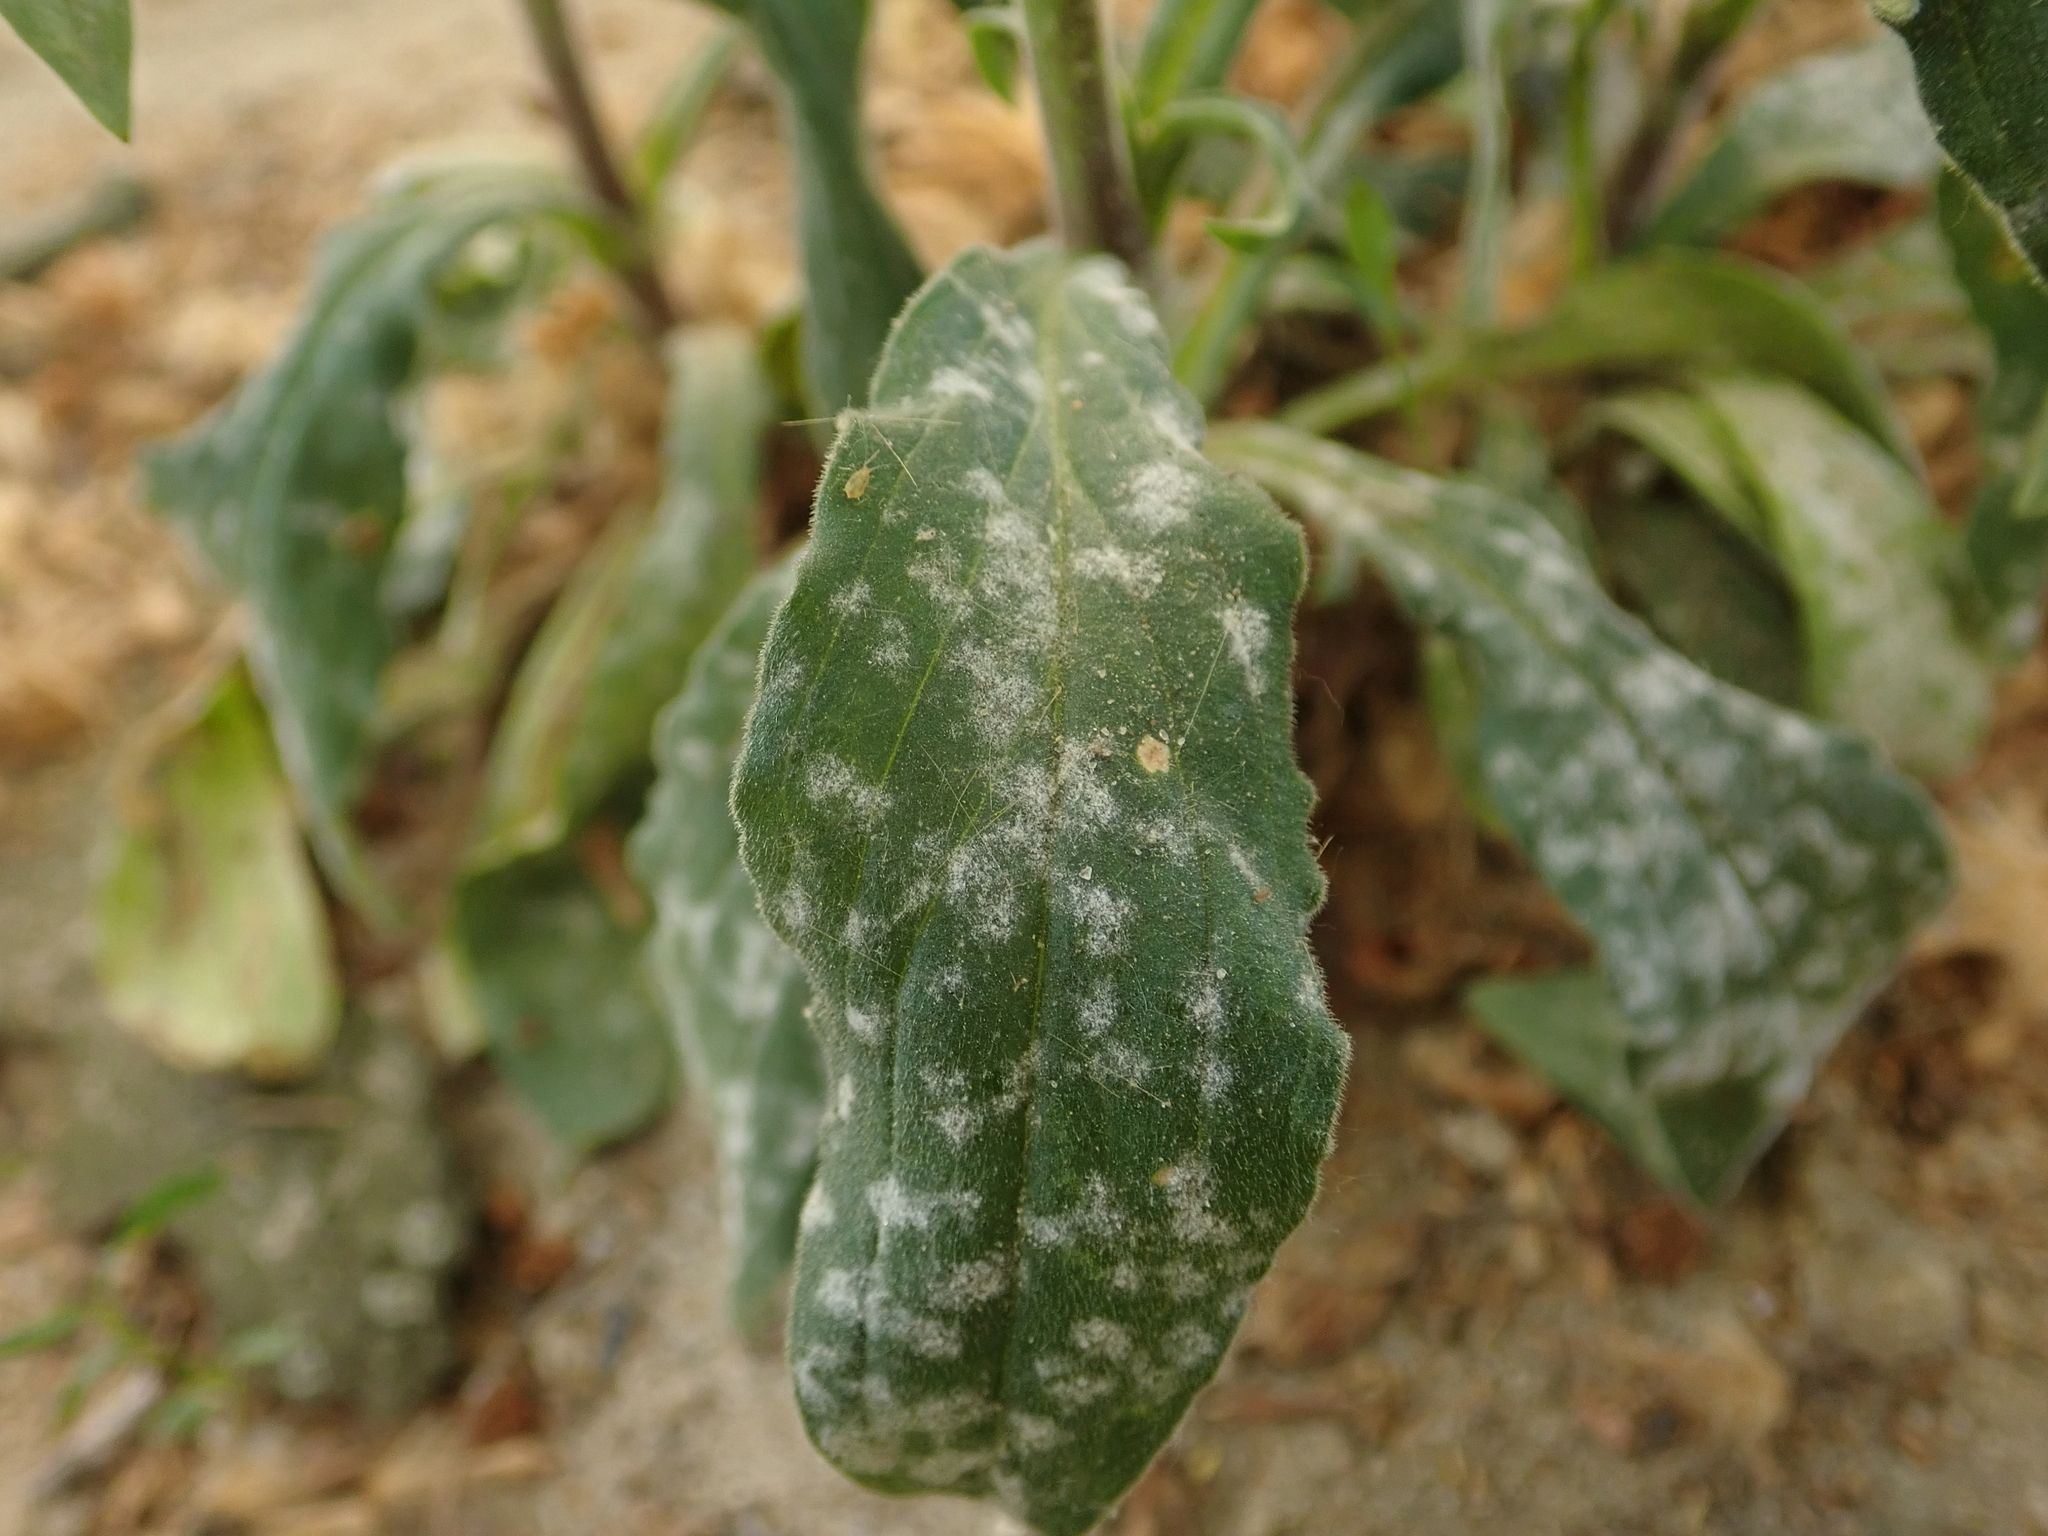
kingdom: Fungi
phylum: Ascomycota
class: Leotiomycetes
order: Helotiales
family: Erysiphaceae
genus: Erysiphe
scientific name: Erysiphe buhrii
